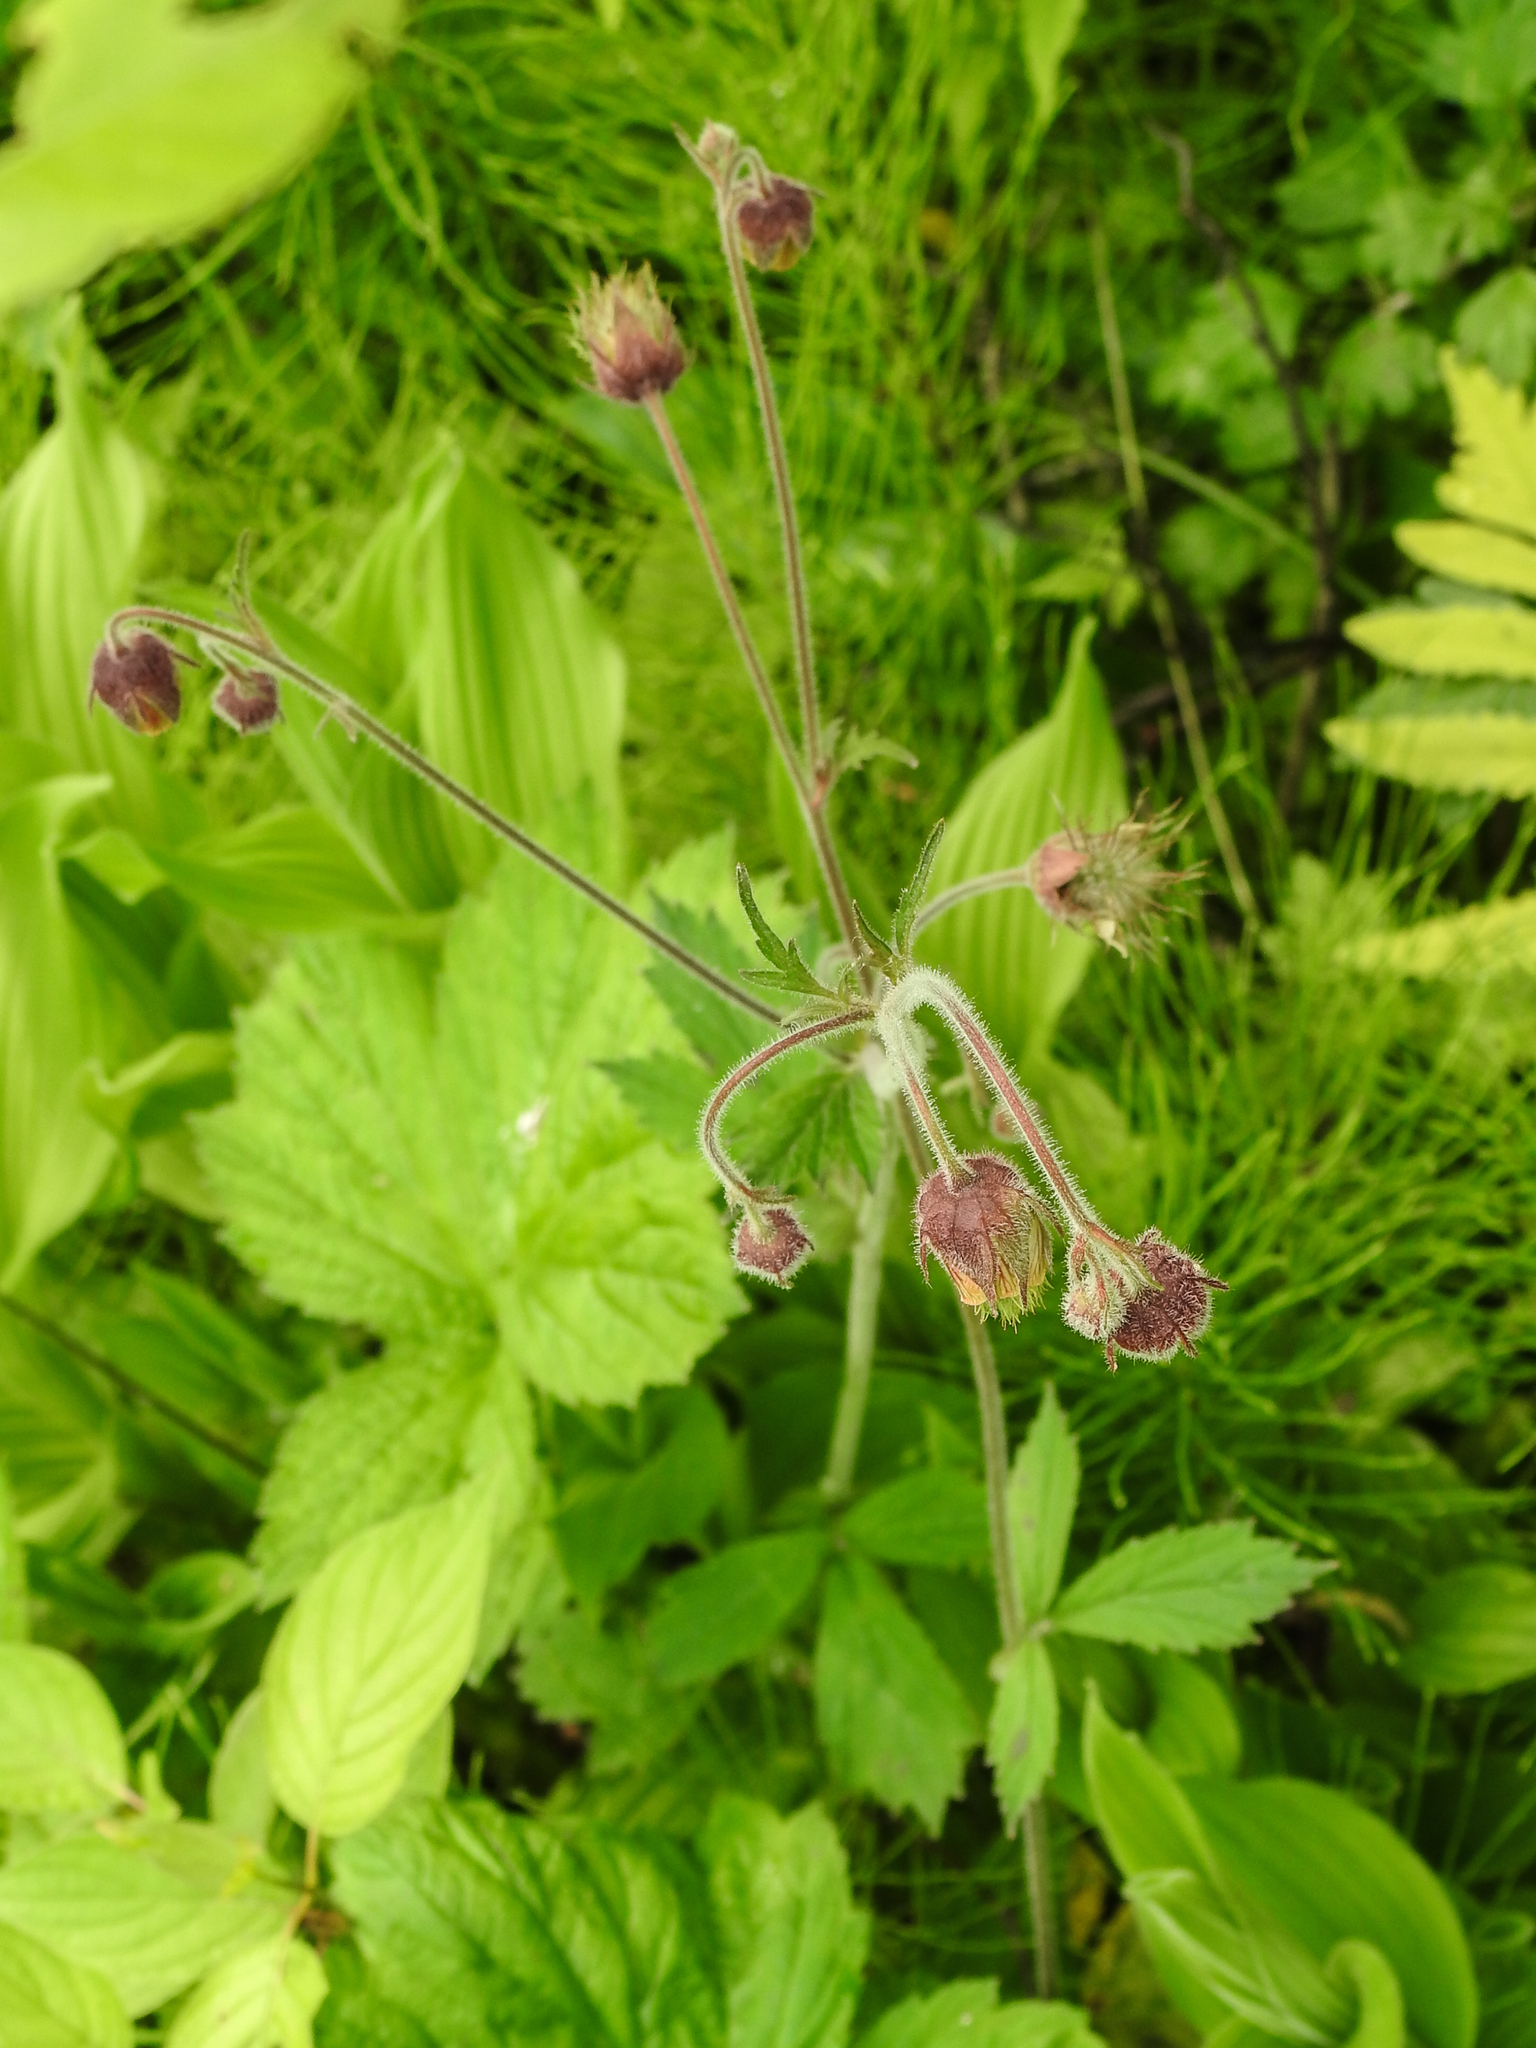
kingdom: Plantae
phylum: Tracheophyta
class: Magnoliopsida
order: Rosales
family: Rosaceae
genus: Geum
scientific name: Geum rivale
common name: Water avens
